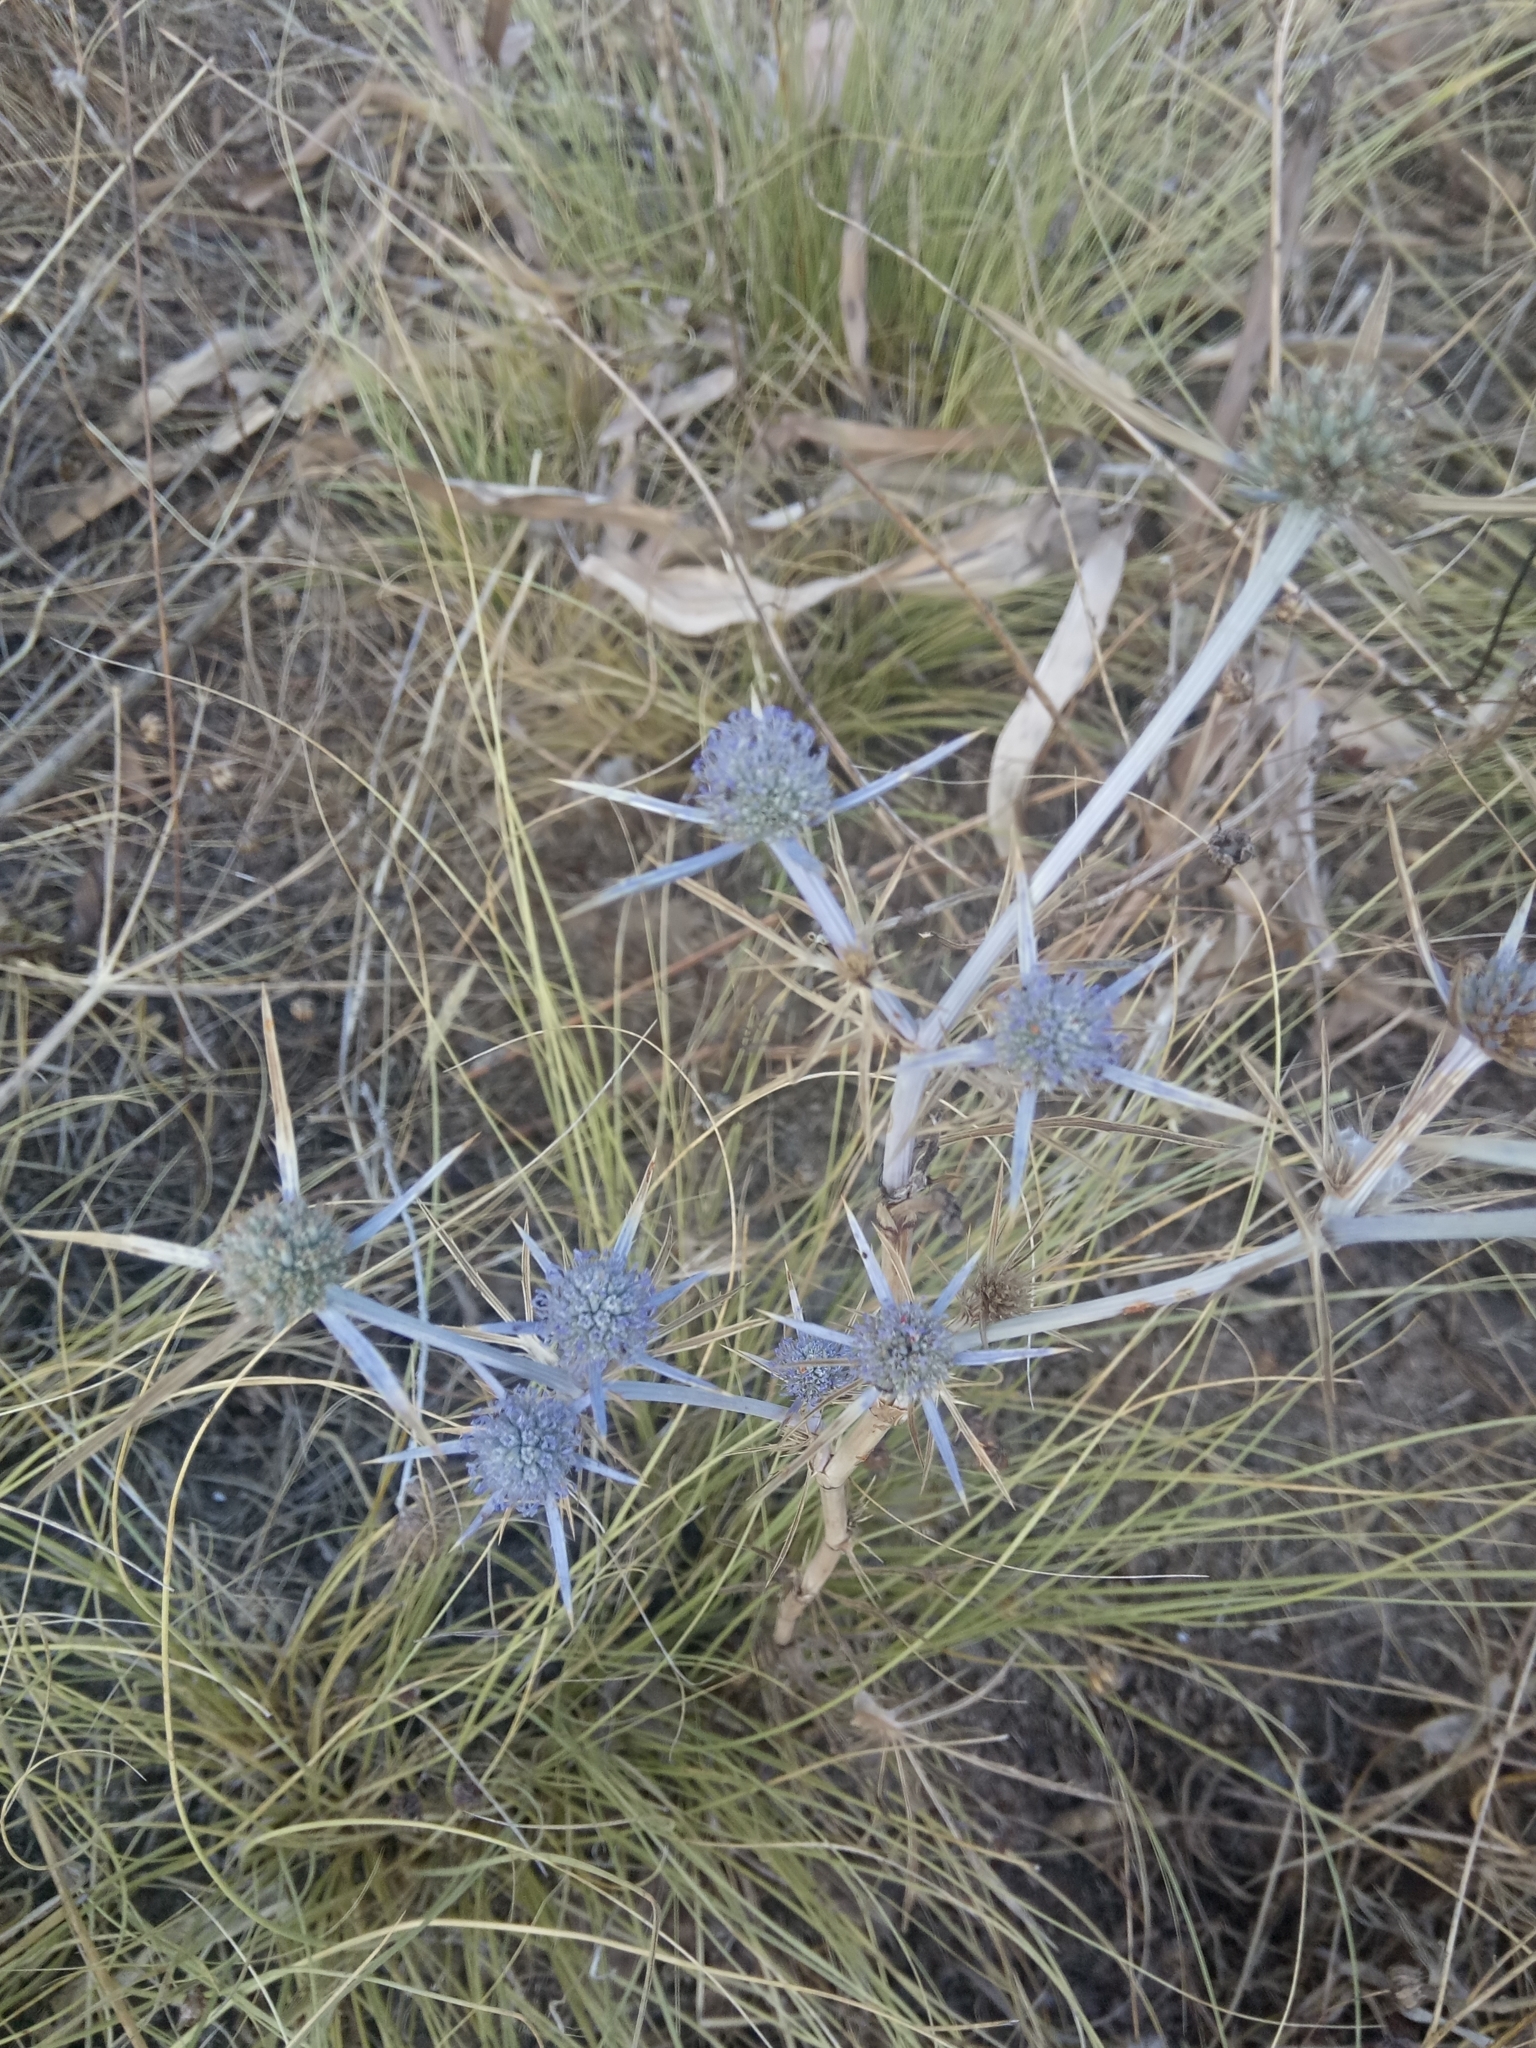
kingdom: Plantae
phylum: Tracheophyta
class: Magnoliopsida
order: Apiales
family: Apiaceae
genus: Eryngium
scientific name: Eryngium tricuspidatum
